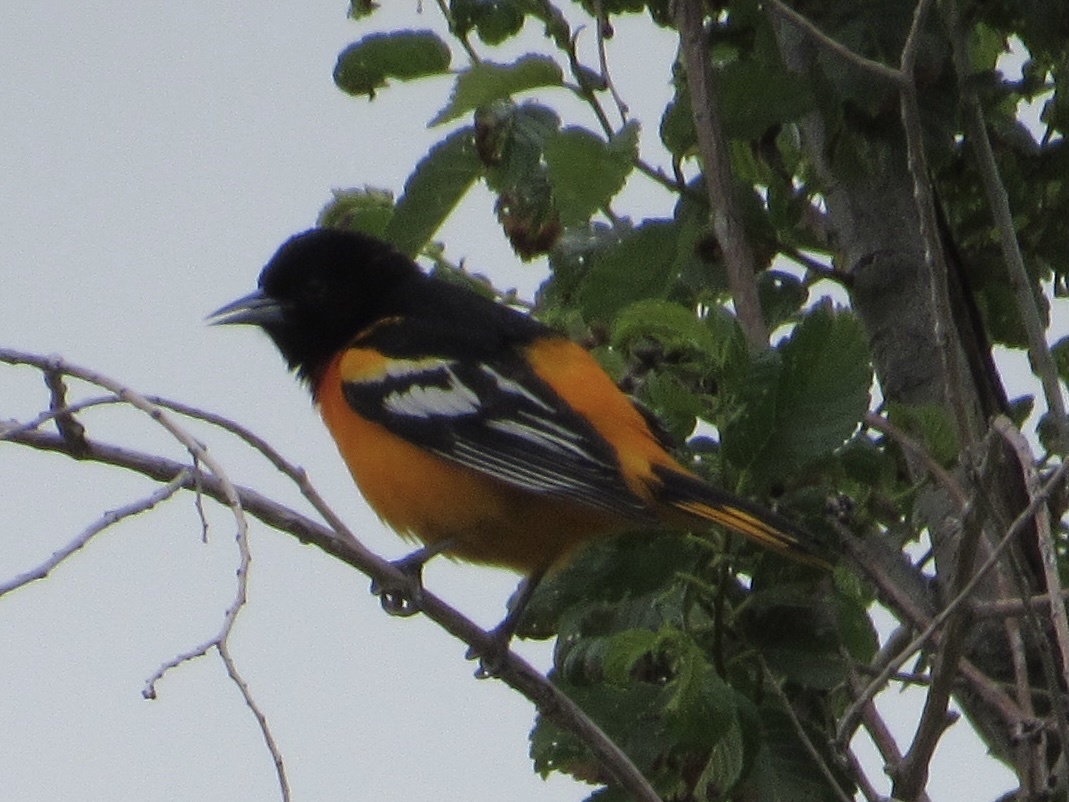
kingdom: Animalia
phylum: Chordata
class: Aves
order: Passeriformes
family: Icteridae
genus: Icterus
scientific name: Icterus galbula
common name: Baltimore oriole
